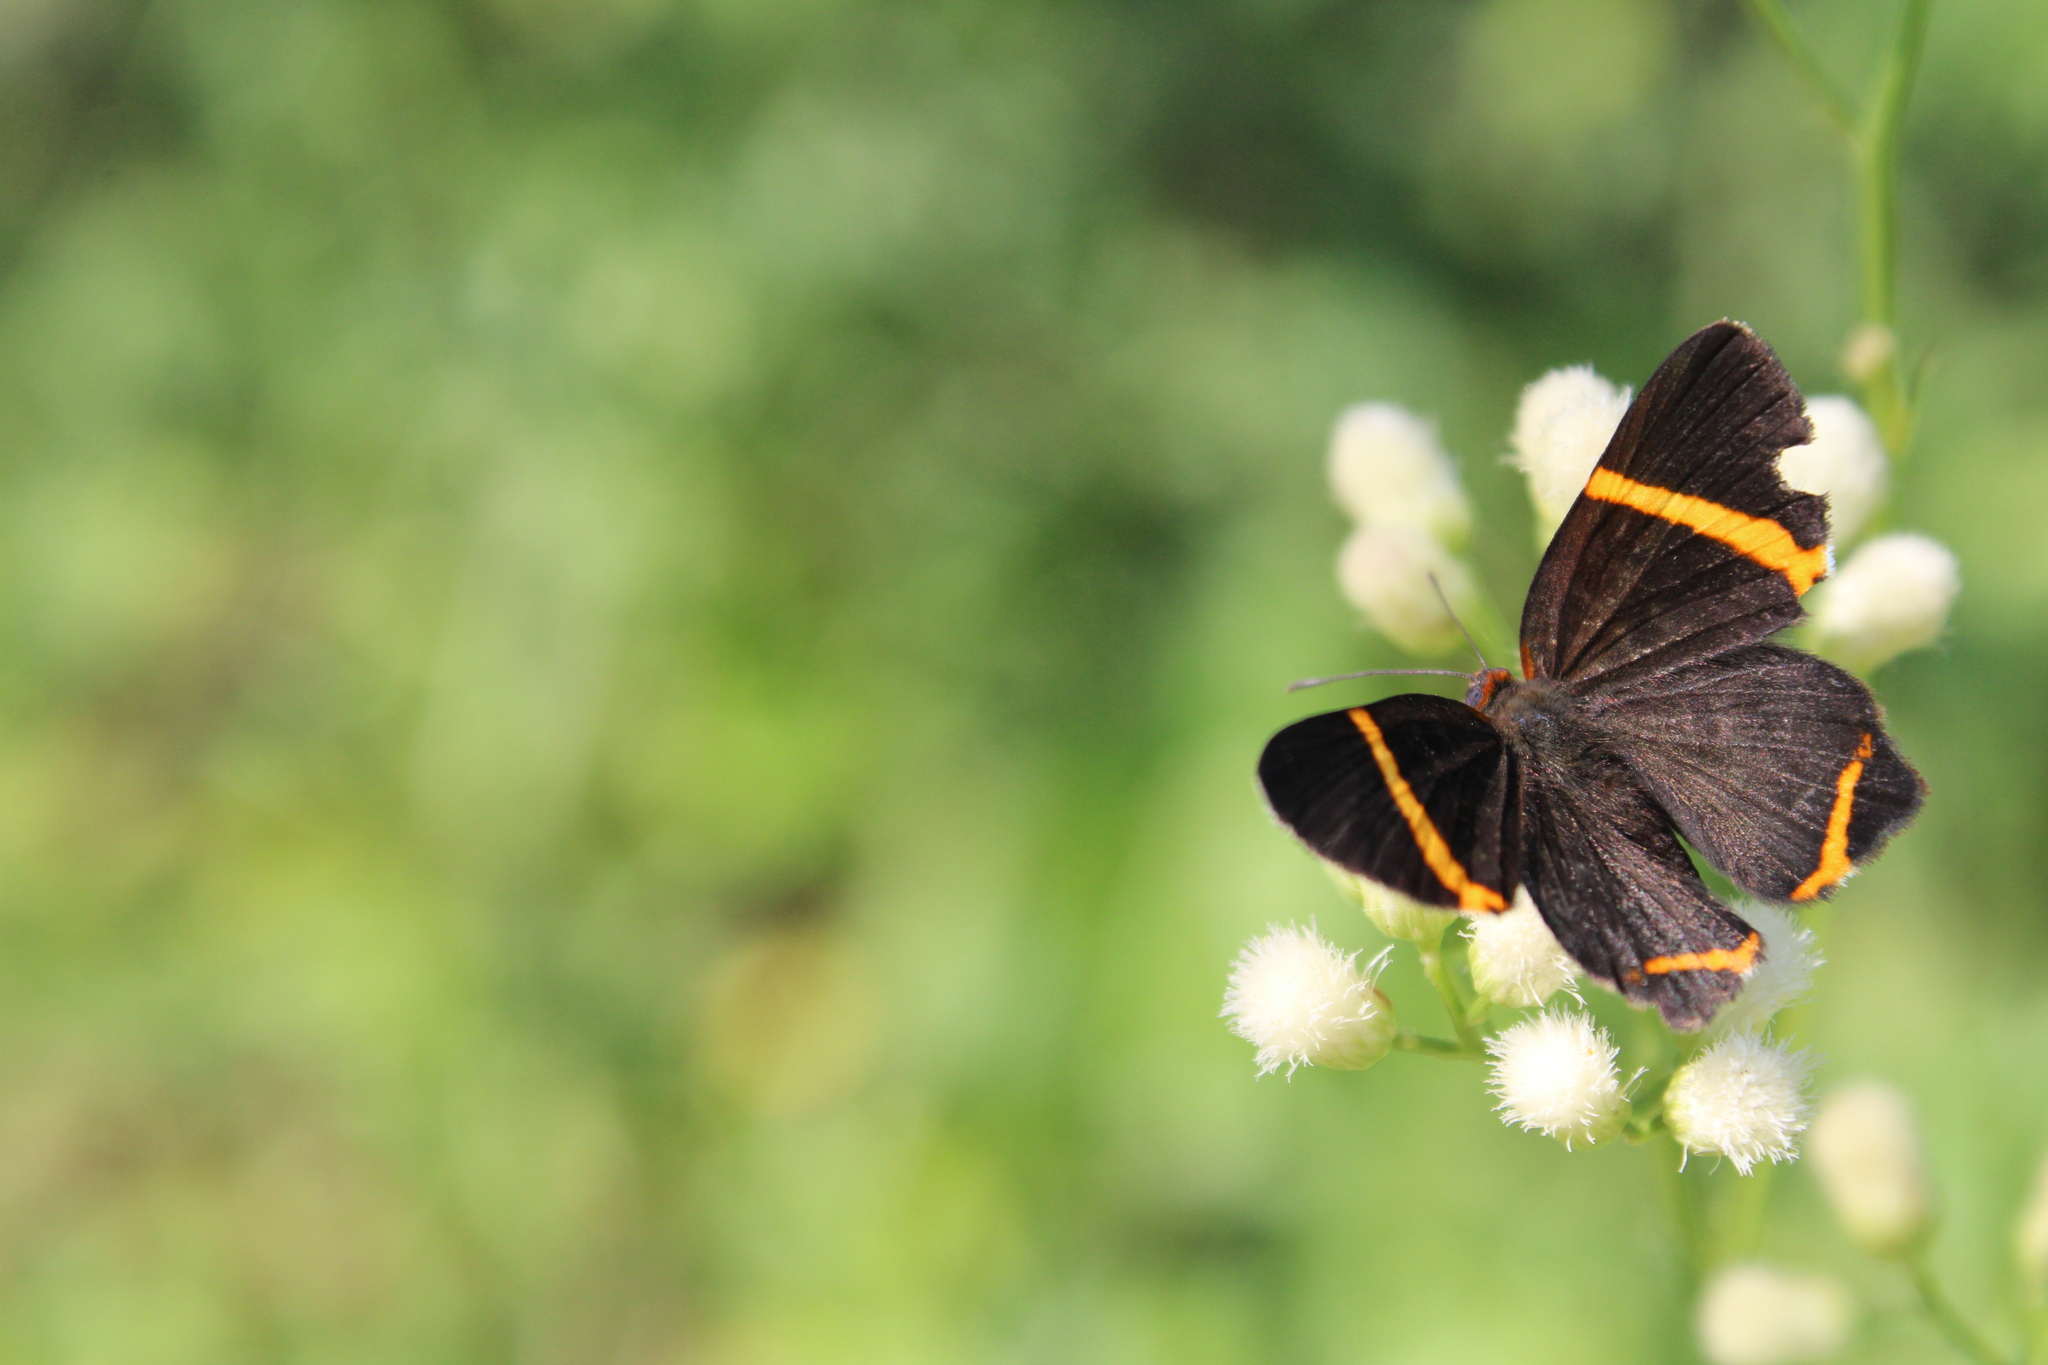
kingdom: Animalia
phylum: Arthropoda
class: Insecta
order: Lepidoptera
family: Riodinidae
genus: Riodina
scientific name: Riodina lysippoides
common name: Little dancer metalmark
